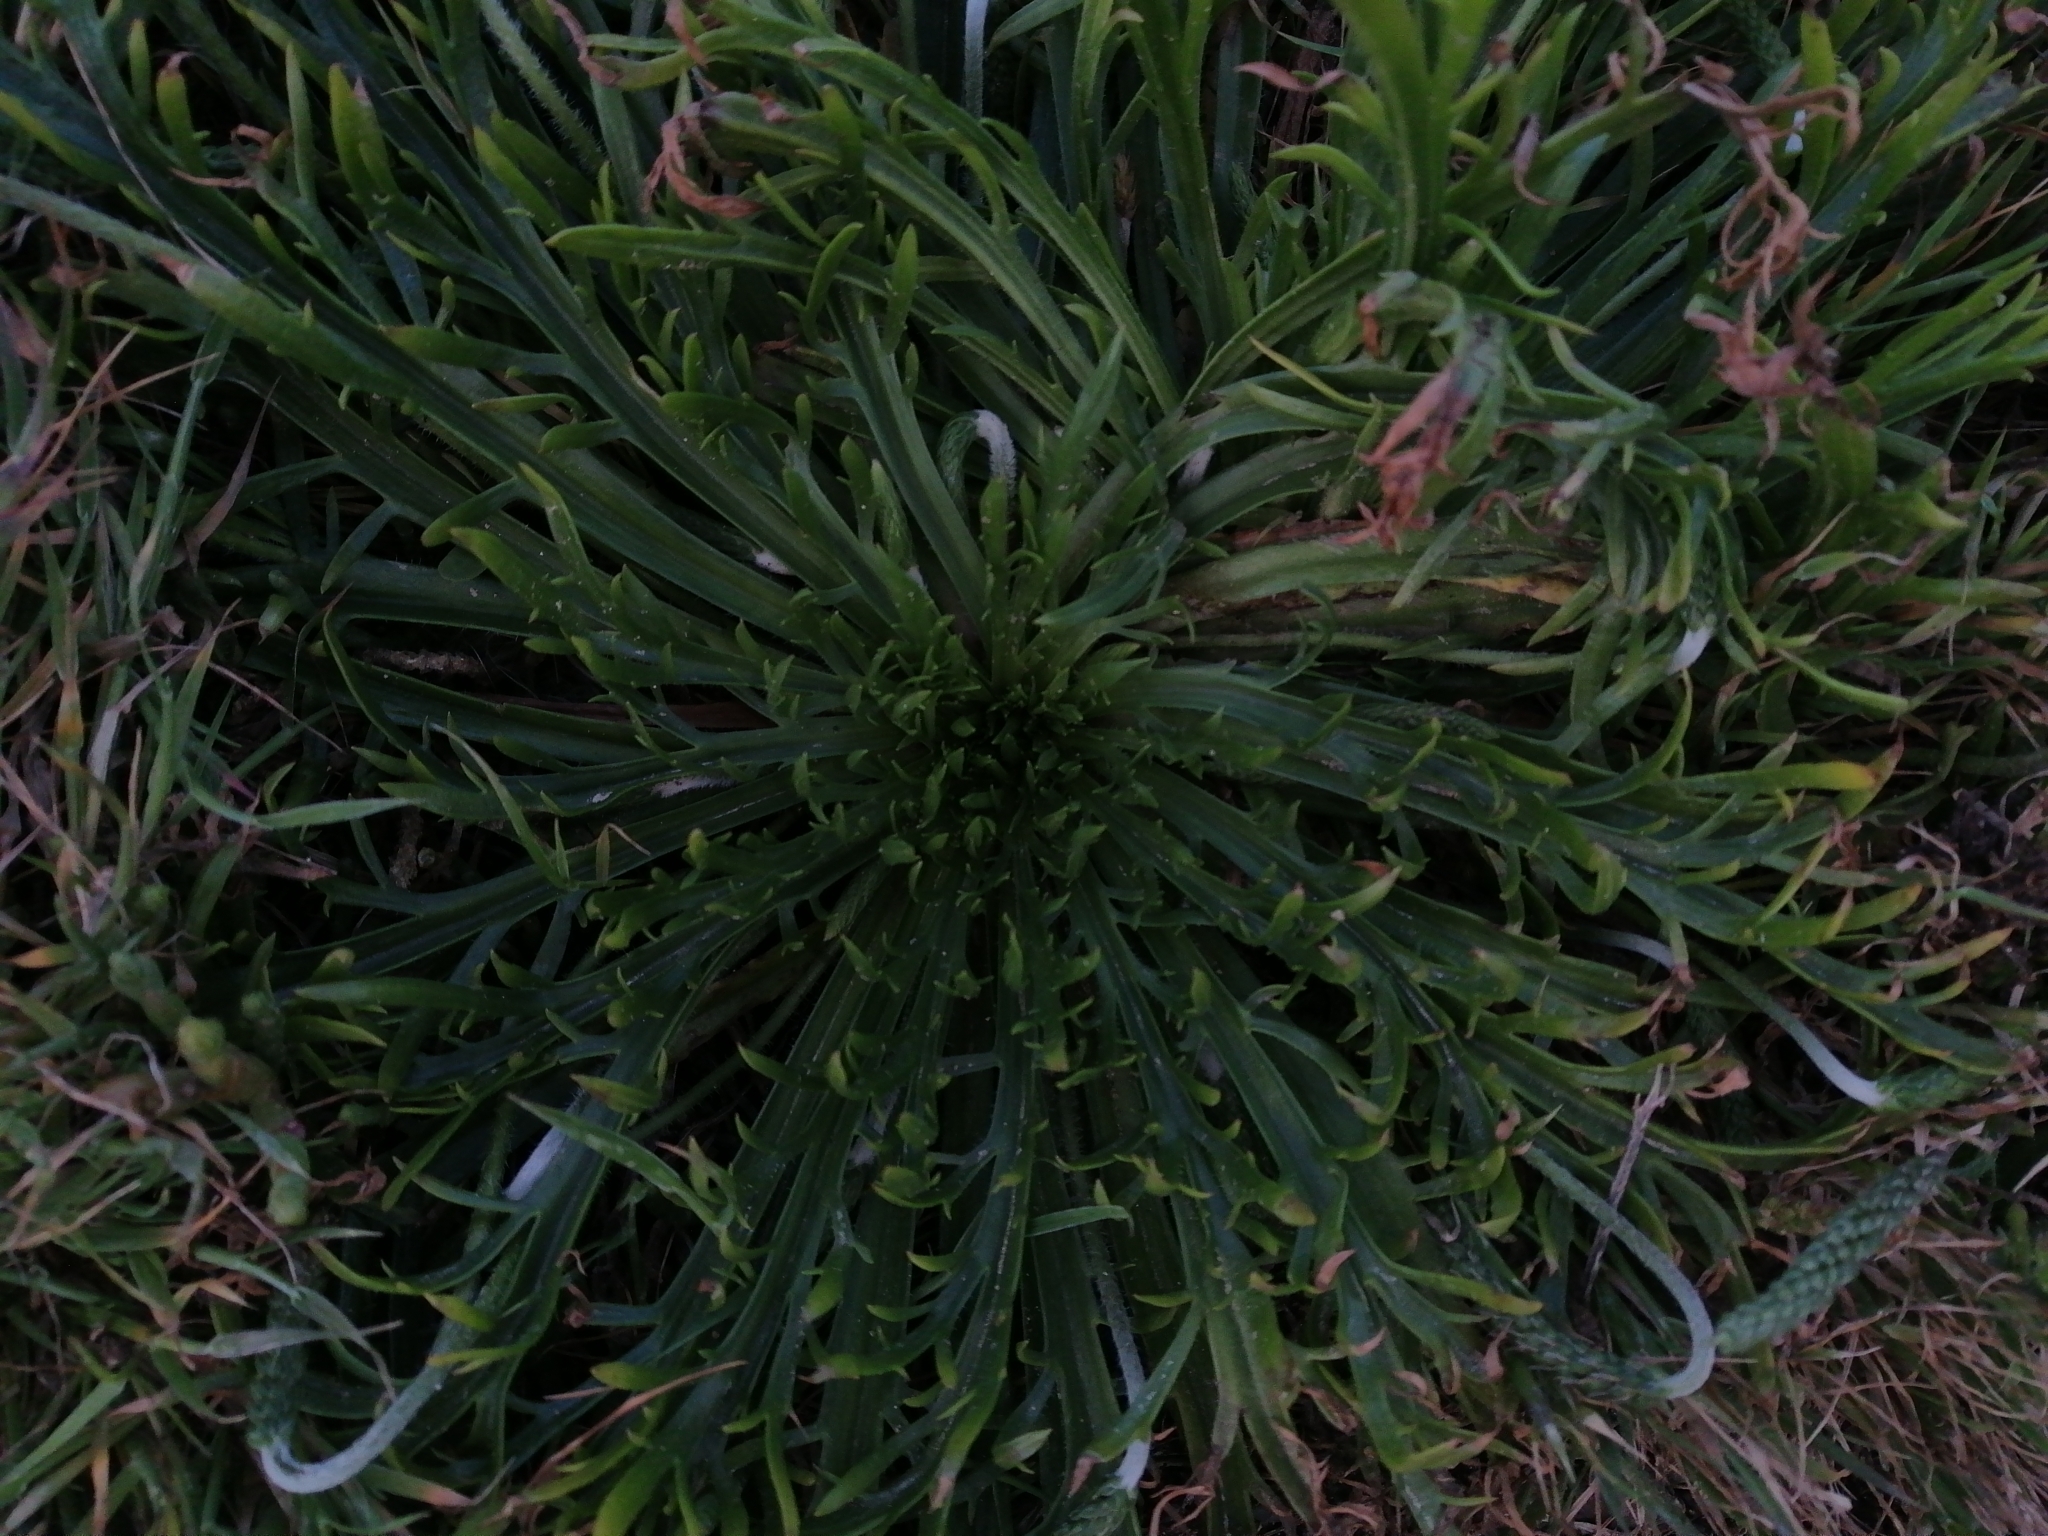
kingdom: Plantae
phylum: Tracheophyta
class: Magnoliopsida
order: Lamiales
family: Plantaginaceae
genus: Plantago
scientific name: Plantago coronopus
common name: Buck's-horn plantain
